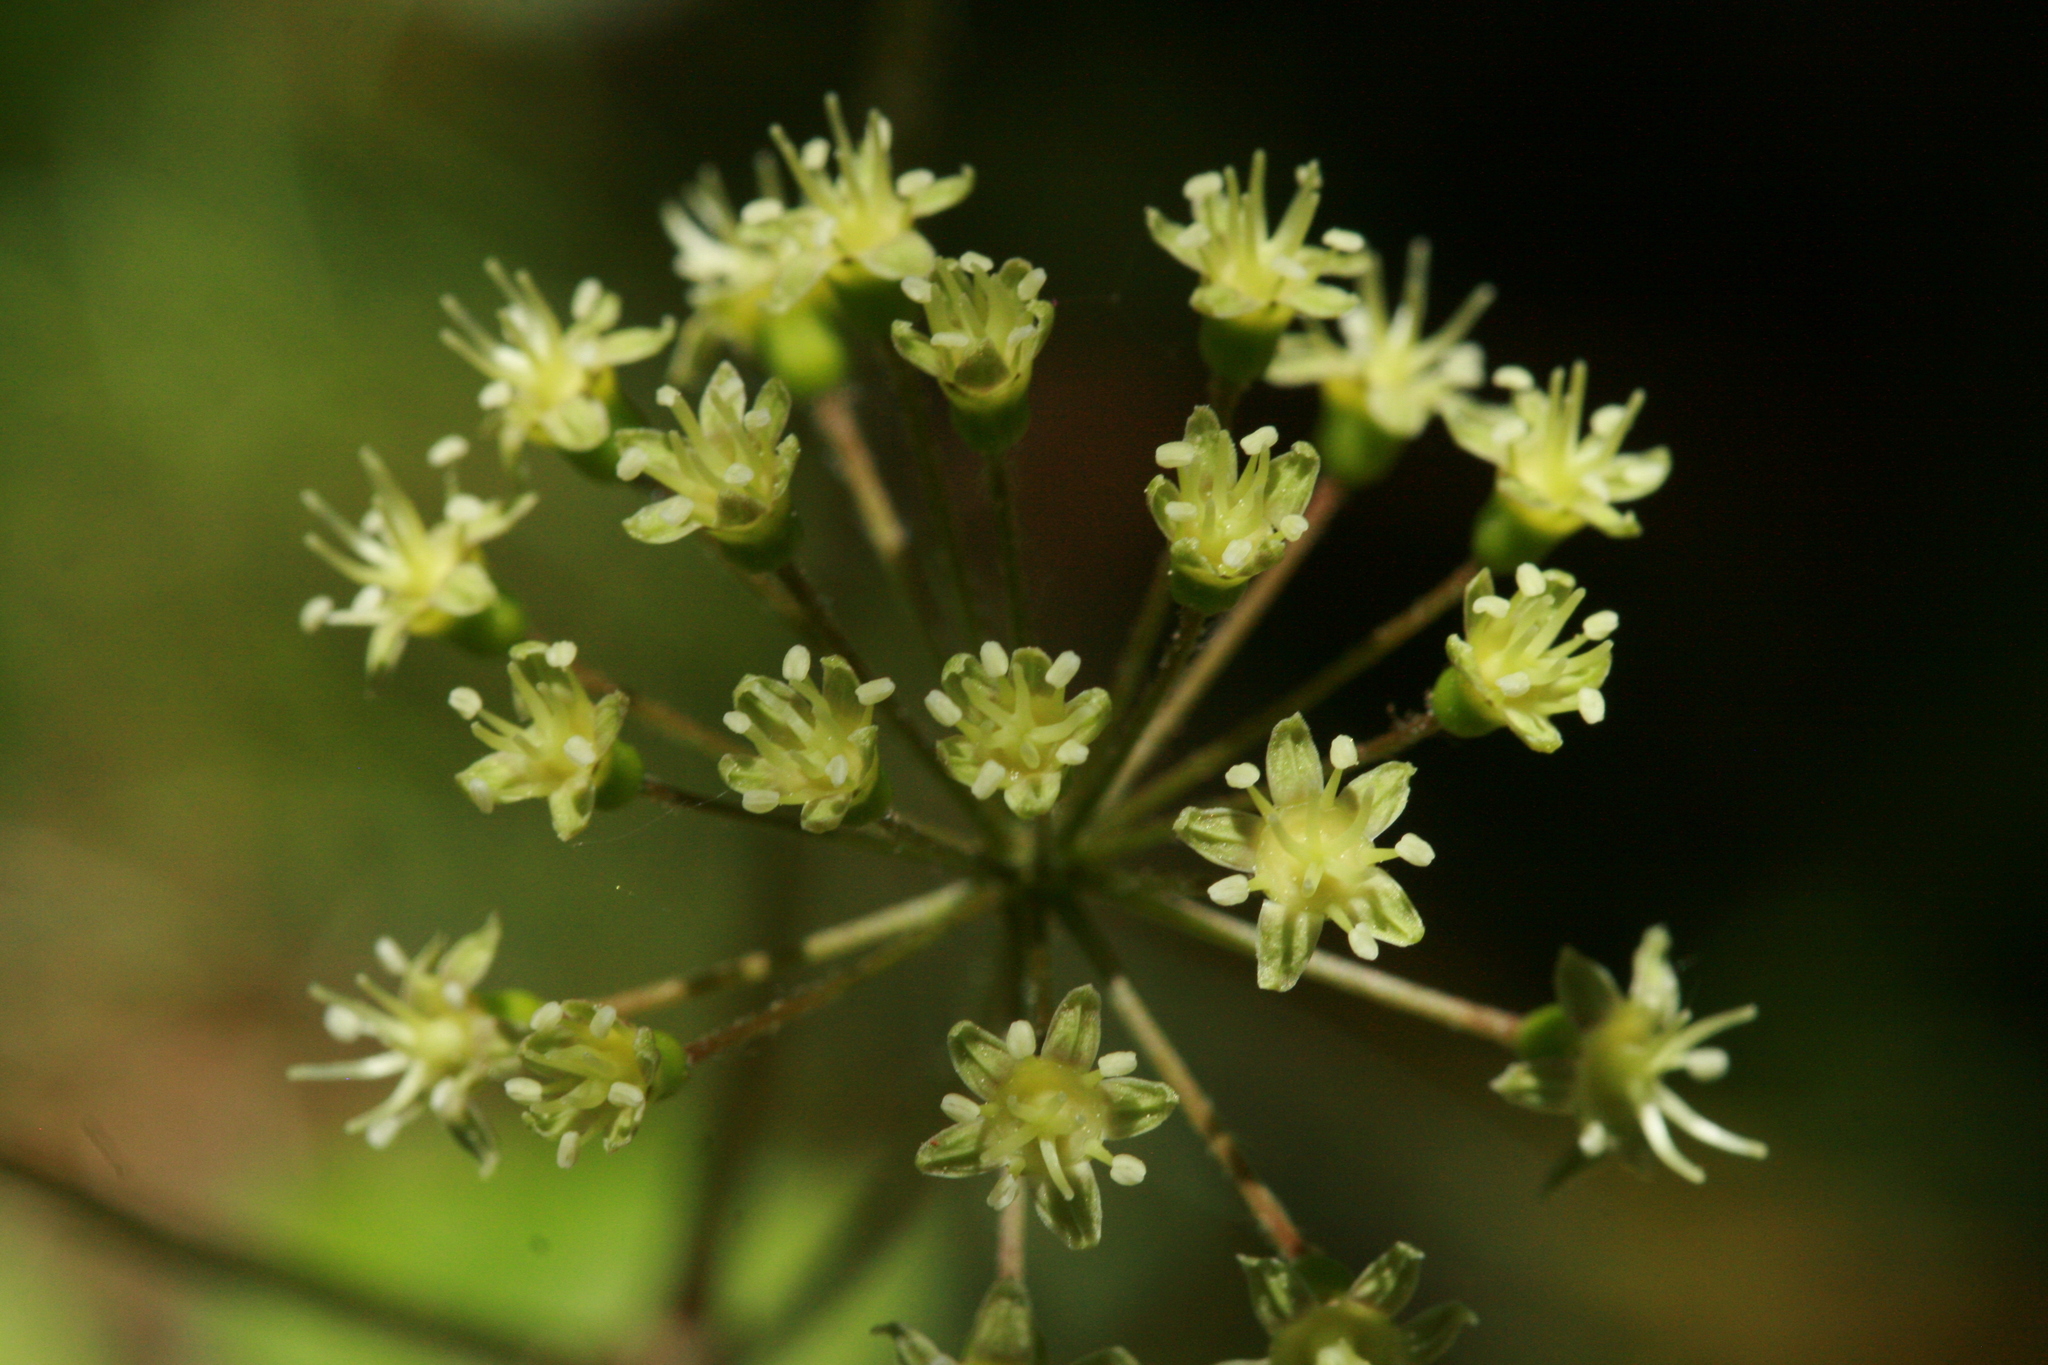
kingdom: Plantae
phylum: Tracheophyta
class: Magnoliopsida
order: Apiales
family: Araliaceae
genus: Aralia
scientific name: Aralia nudicaulis
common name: Wild sarsaparilla
